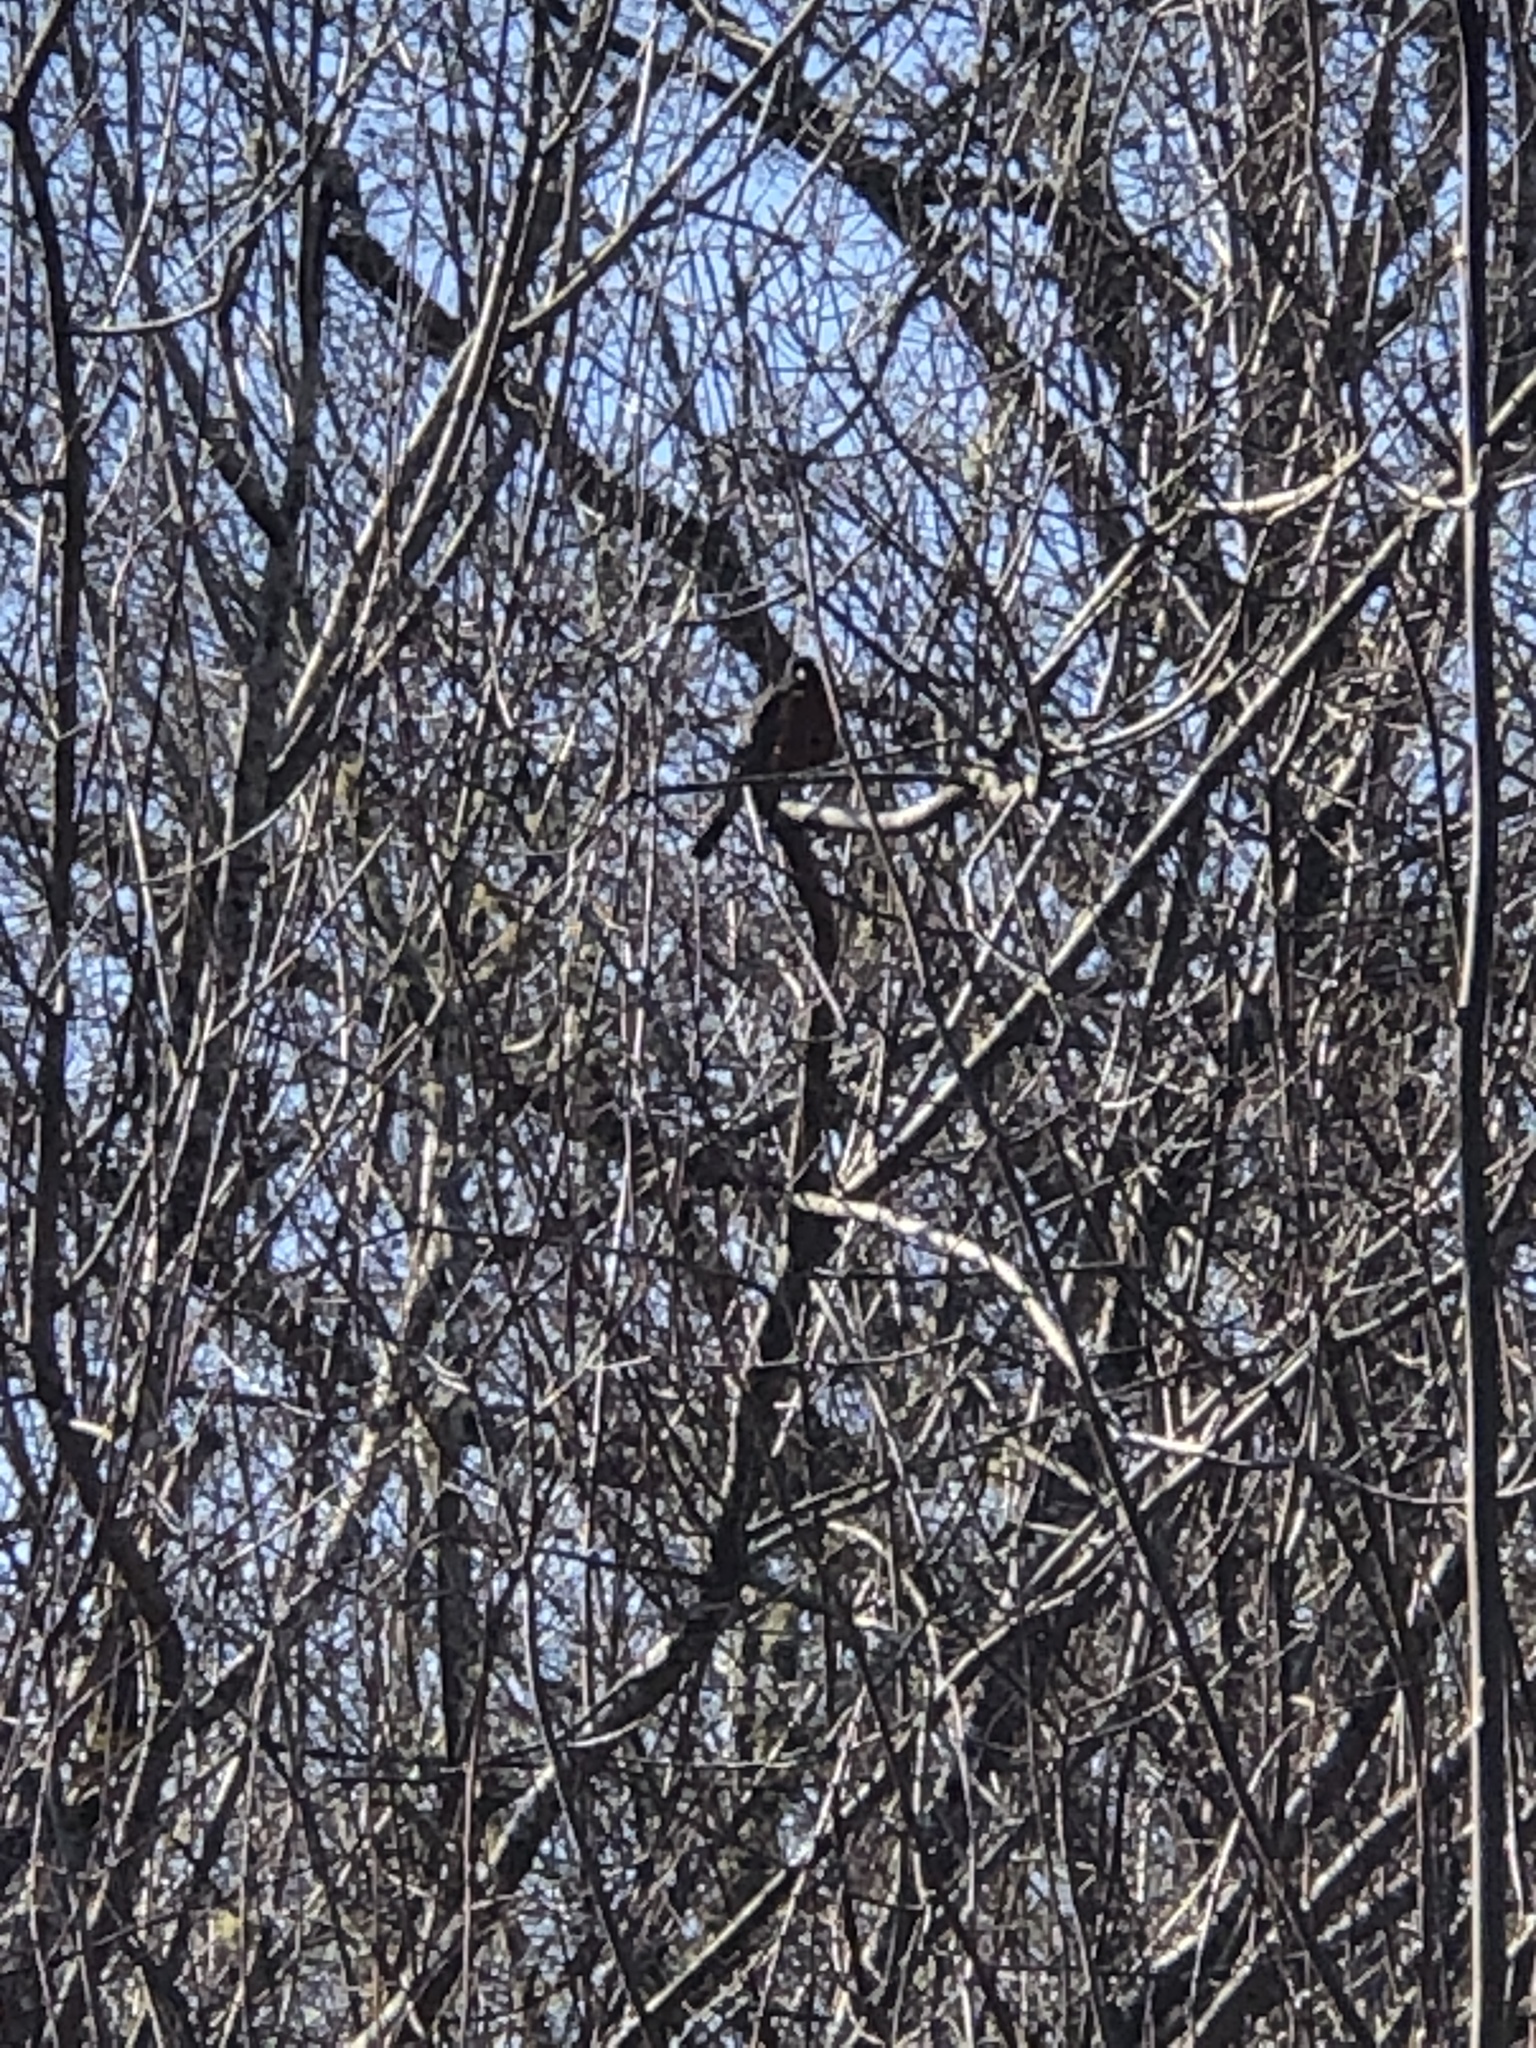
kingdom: Animalia
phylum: Chordata
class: Aves
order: Passeriformes
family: Turdidae
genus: Turdus
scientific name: Turdus migratorius
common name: American robin
